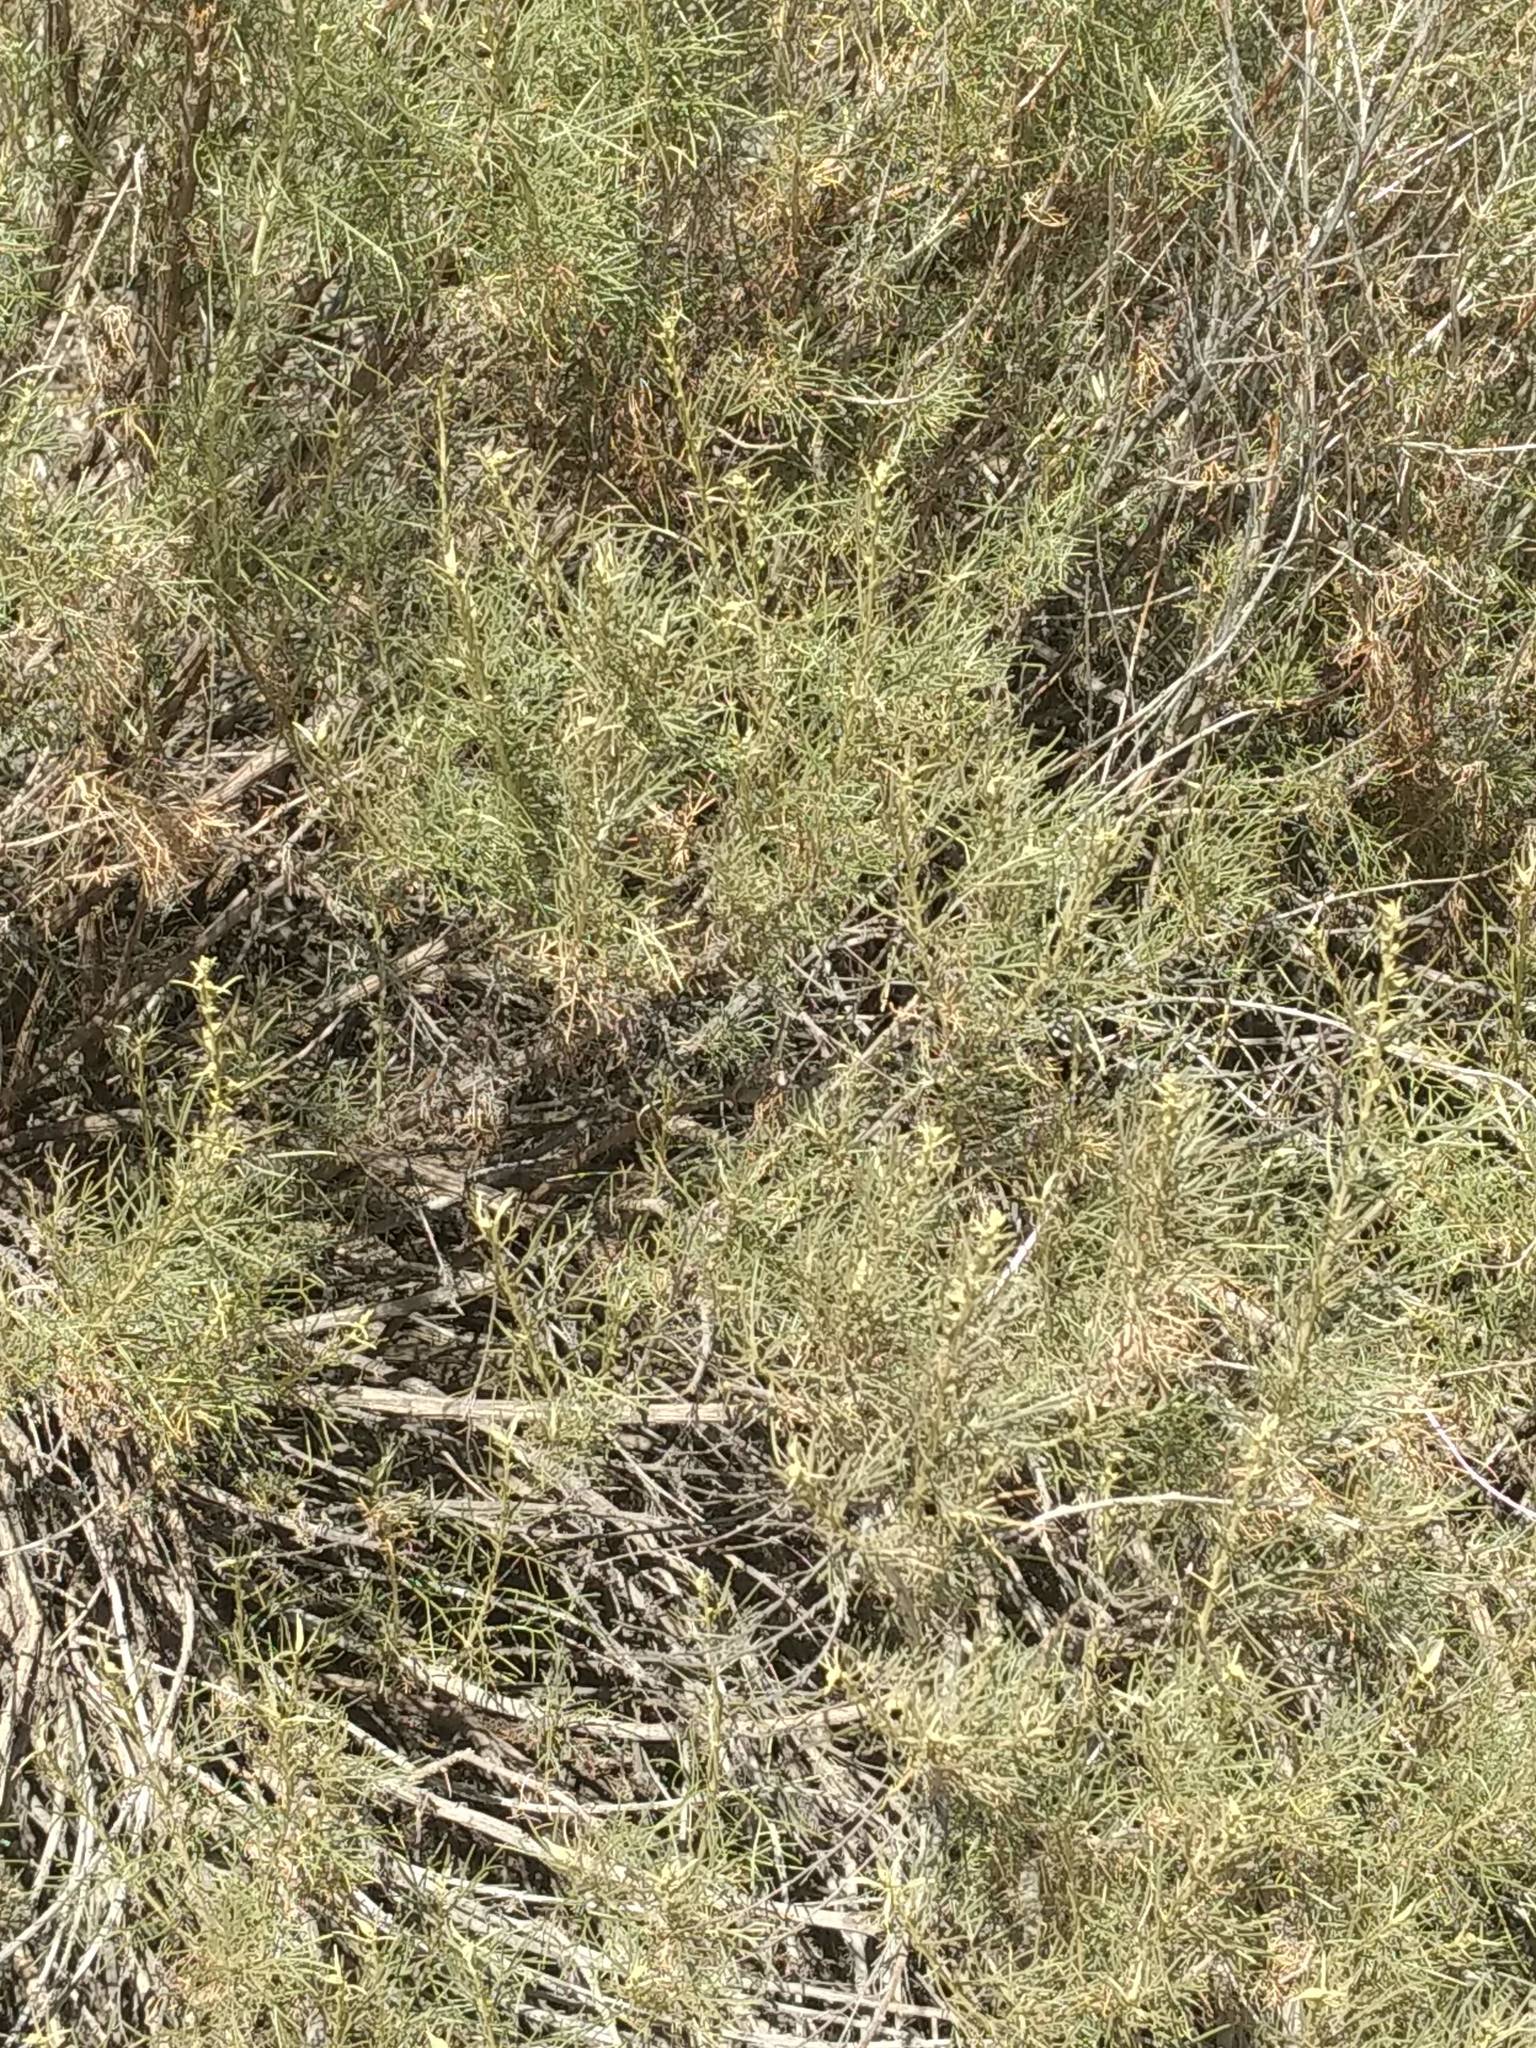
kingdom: Plantae
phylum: Tracheophyta
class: Magnoliopsida
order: Asterales
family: Asteraceae
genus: Artemisia
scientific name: Artemisia californica
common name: California sagebrush
